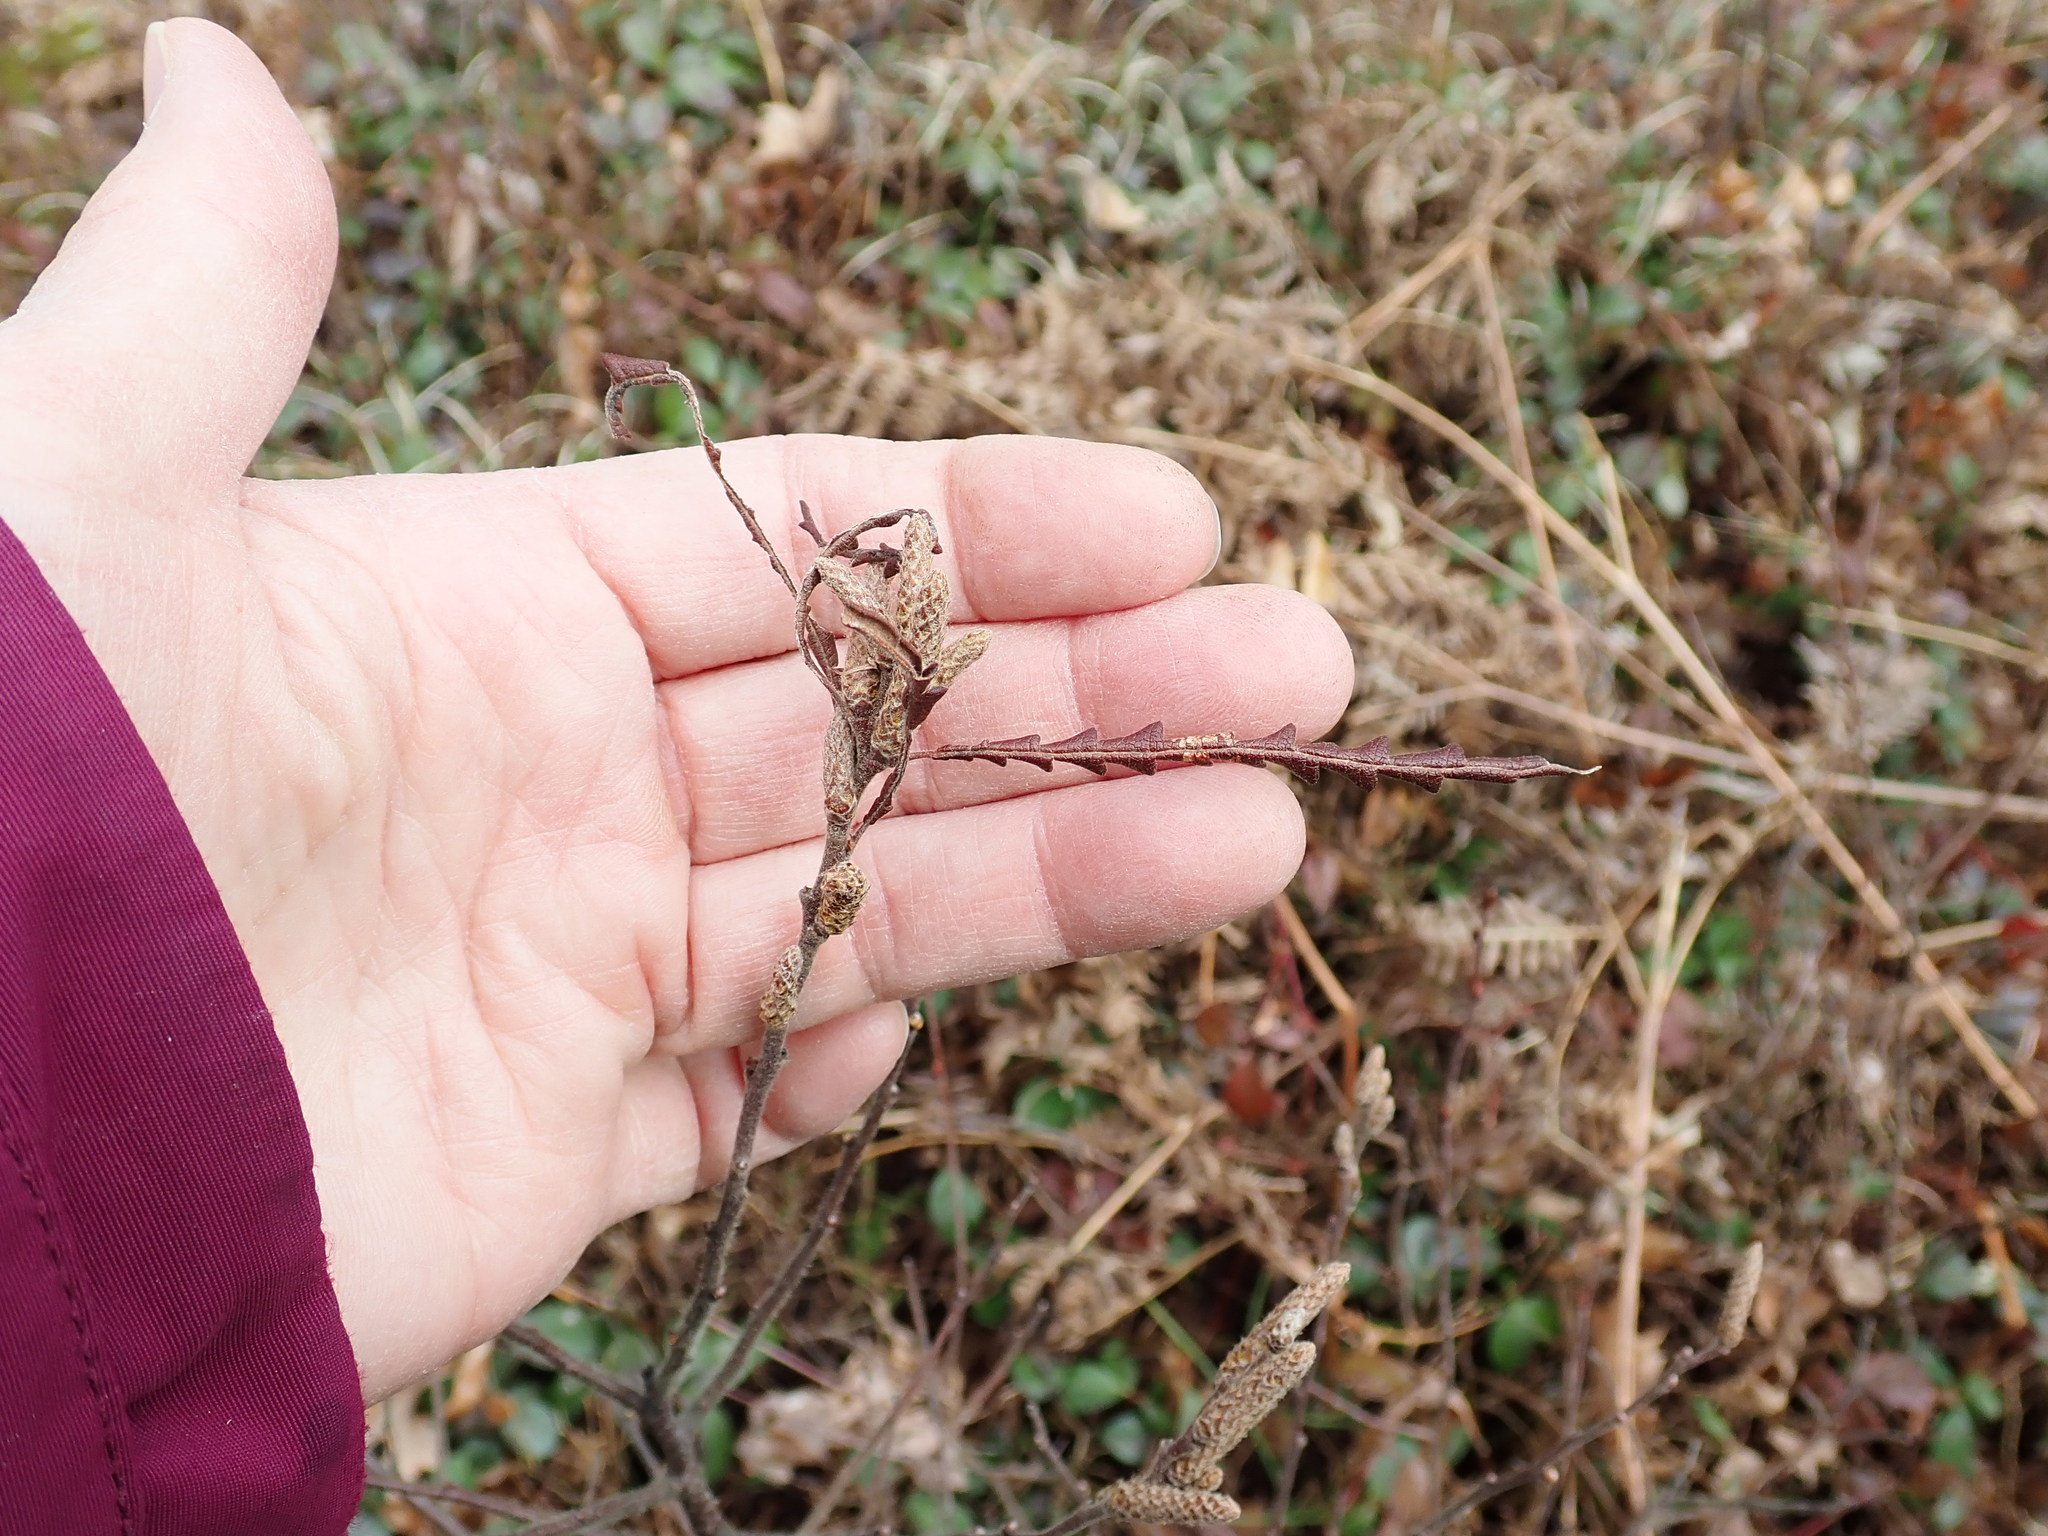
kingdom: Plantae
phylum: Tracheophyta
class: Magnoliopsida
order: Fagales
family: Myricaceae
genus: Comptonia
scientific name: Comptonia peregrina
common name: Sweet-fern
